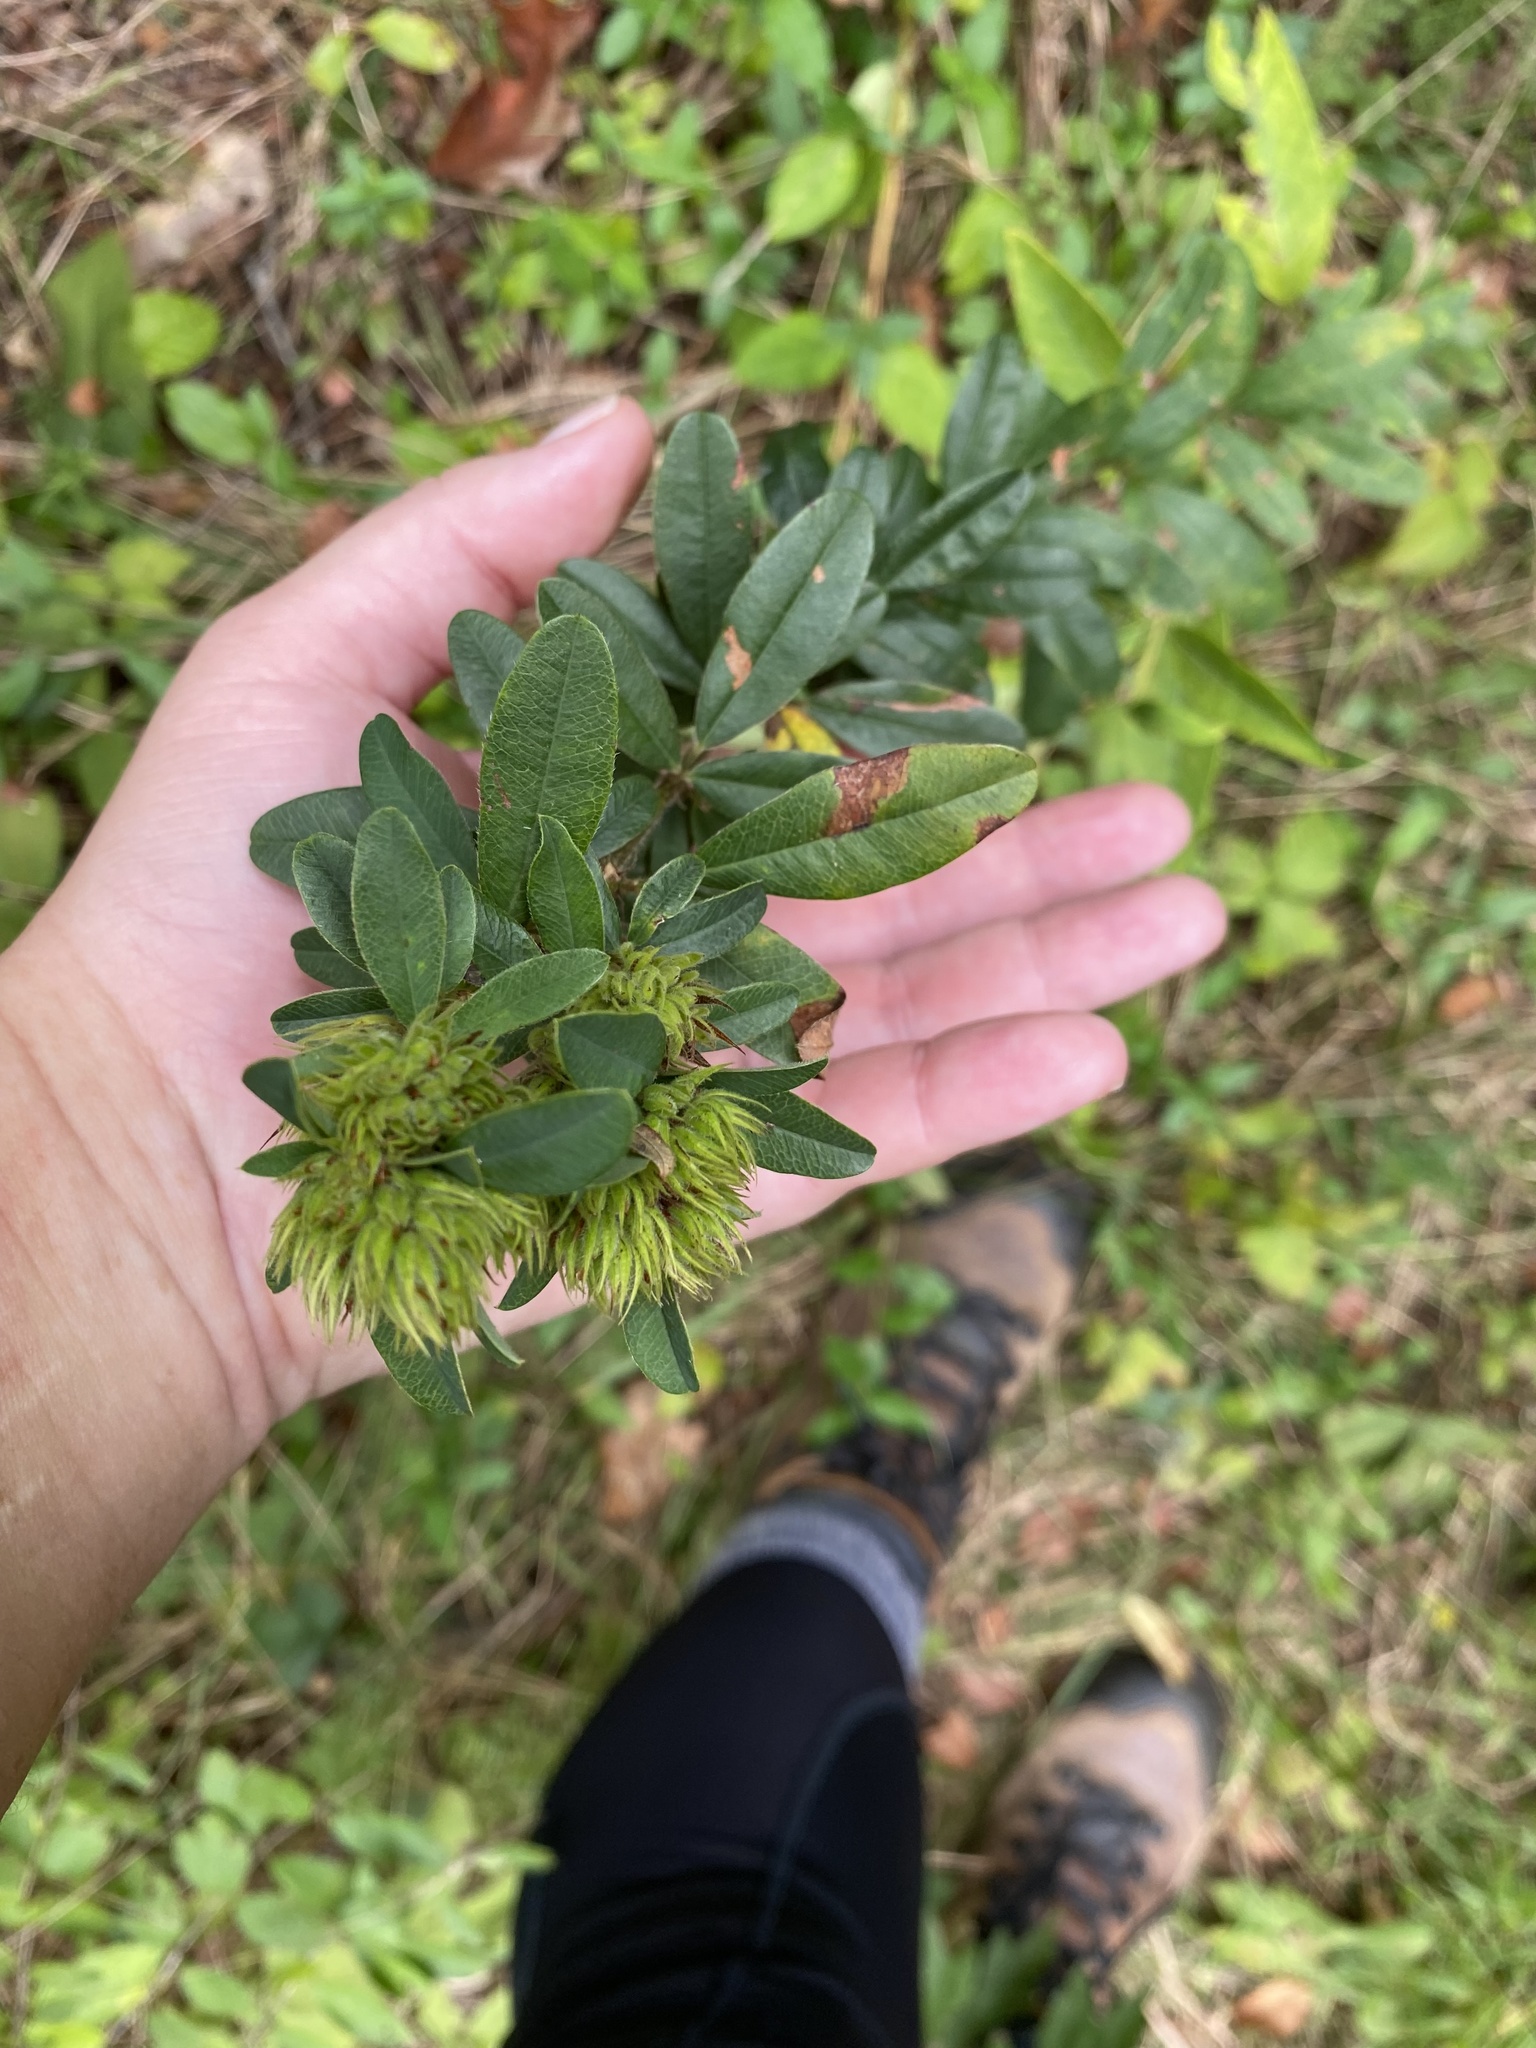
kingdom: Plantae
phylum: Tracheophyta
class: Magnoliopsida
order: Fabales
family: Fabaceae
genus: Lespedeza
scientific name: Lespedeza capitata
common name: Dusty clover
